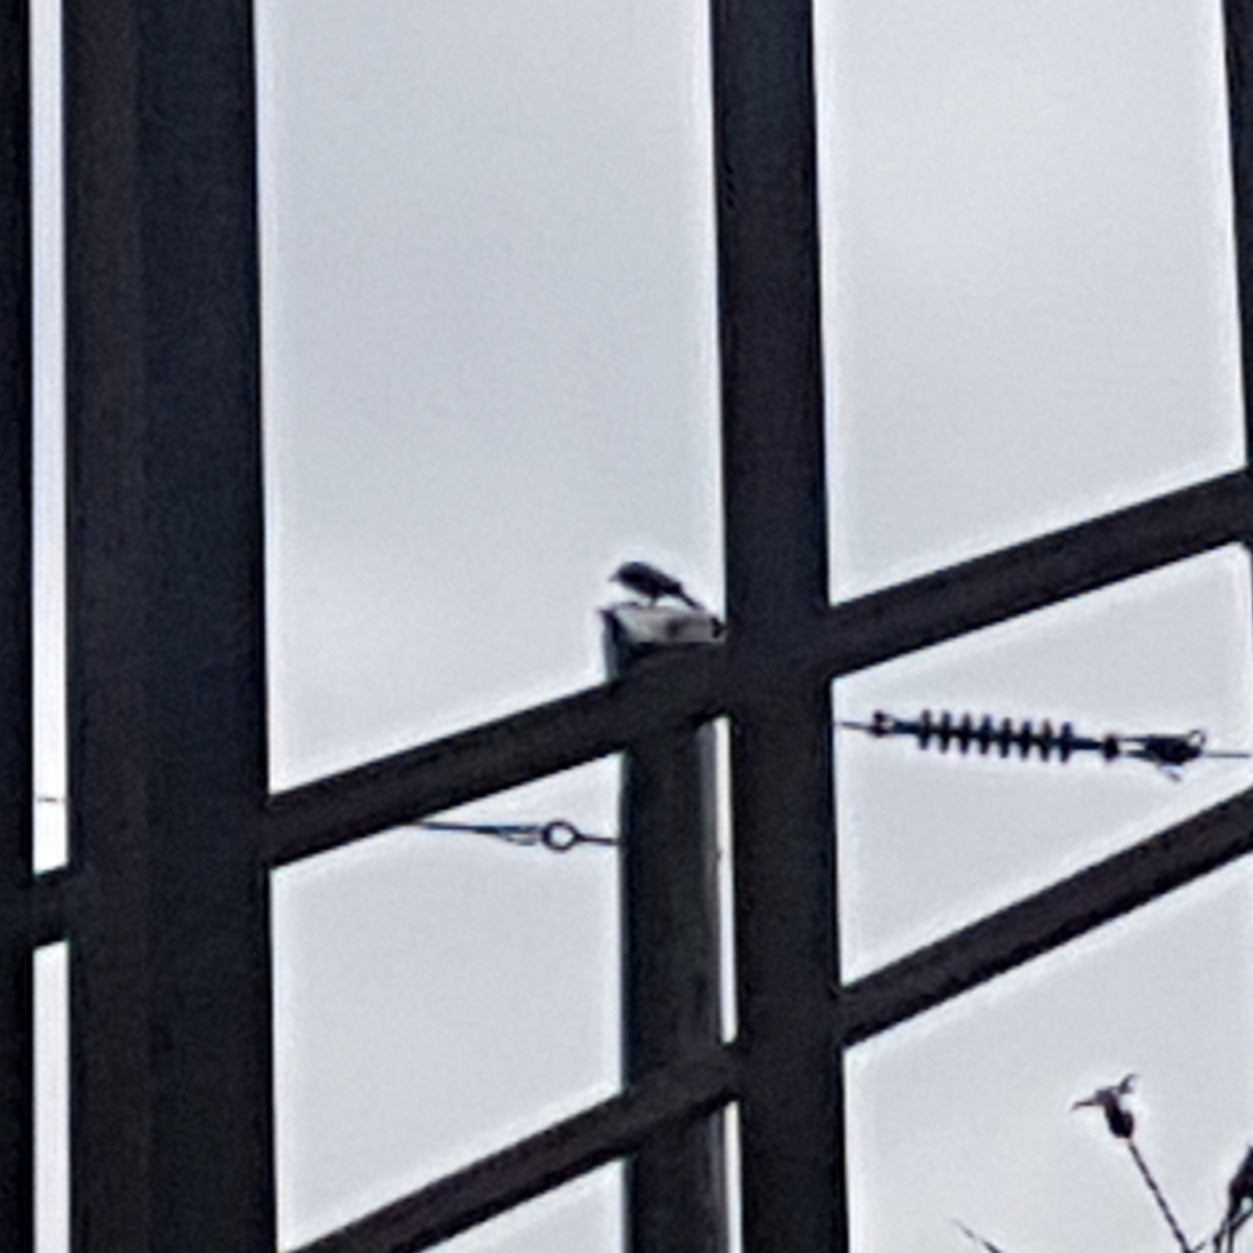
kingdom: Animalia
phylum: Chordata
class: Aves
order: Piciformes
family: Picidae
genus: Colaptes
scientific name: Colaptes auratus
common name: Northern flicker
